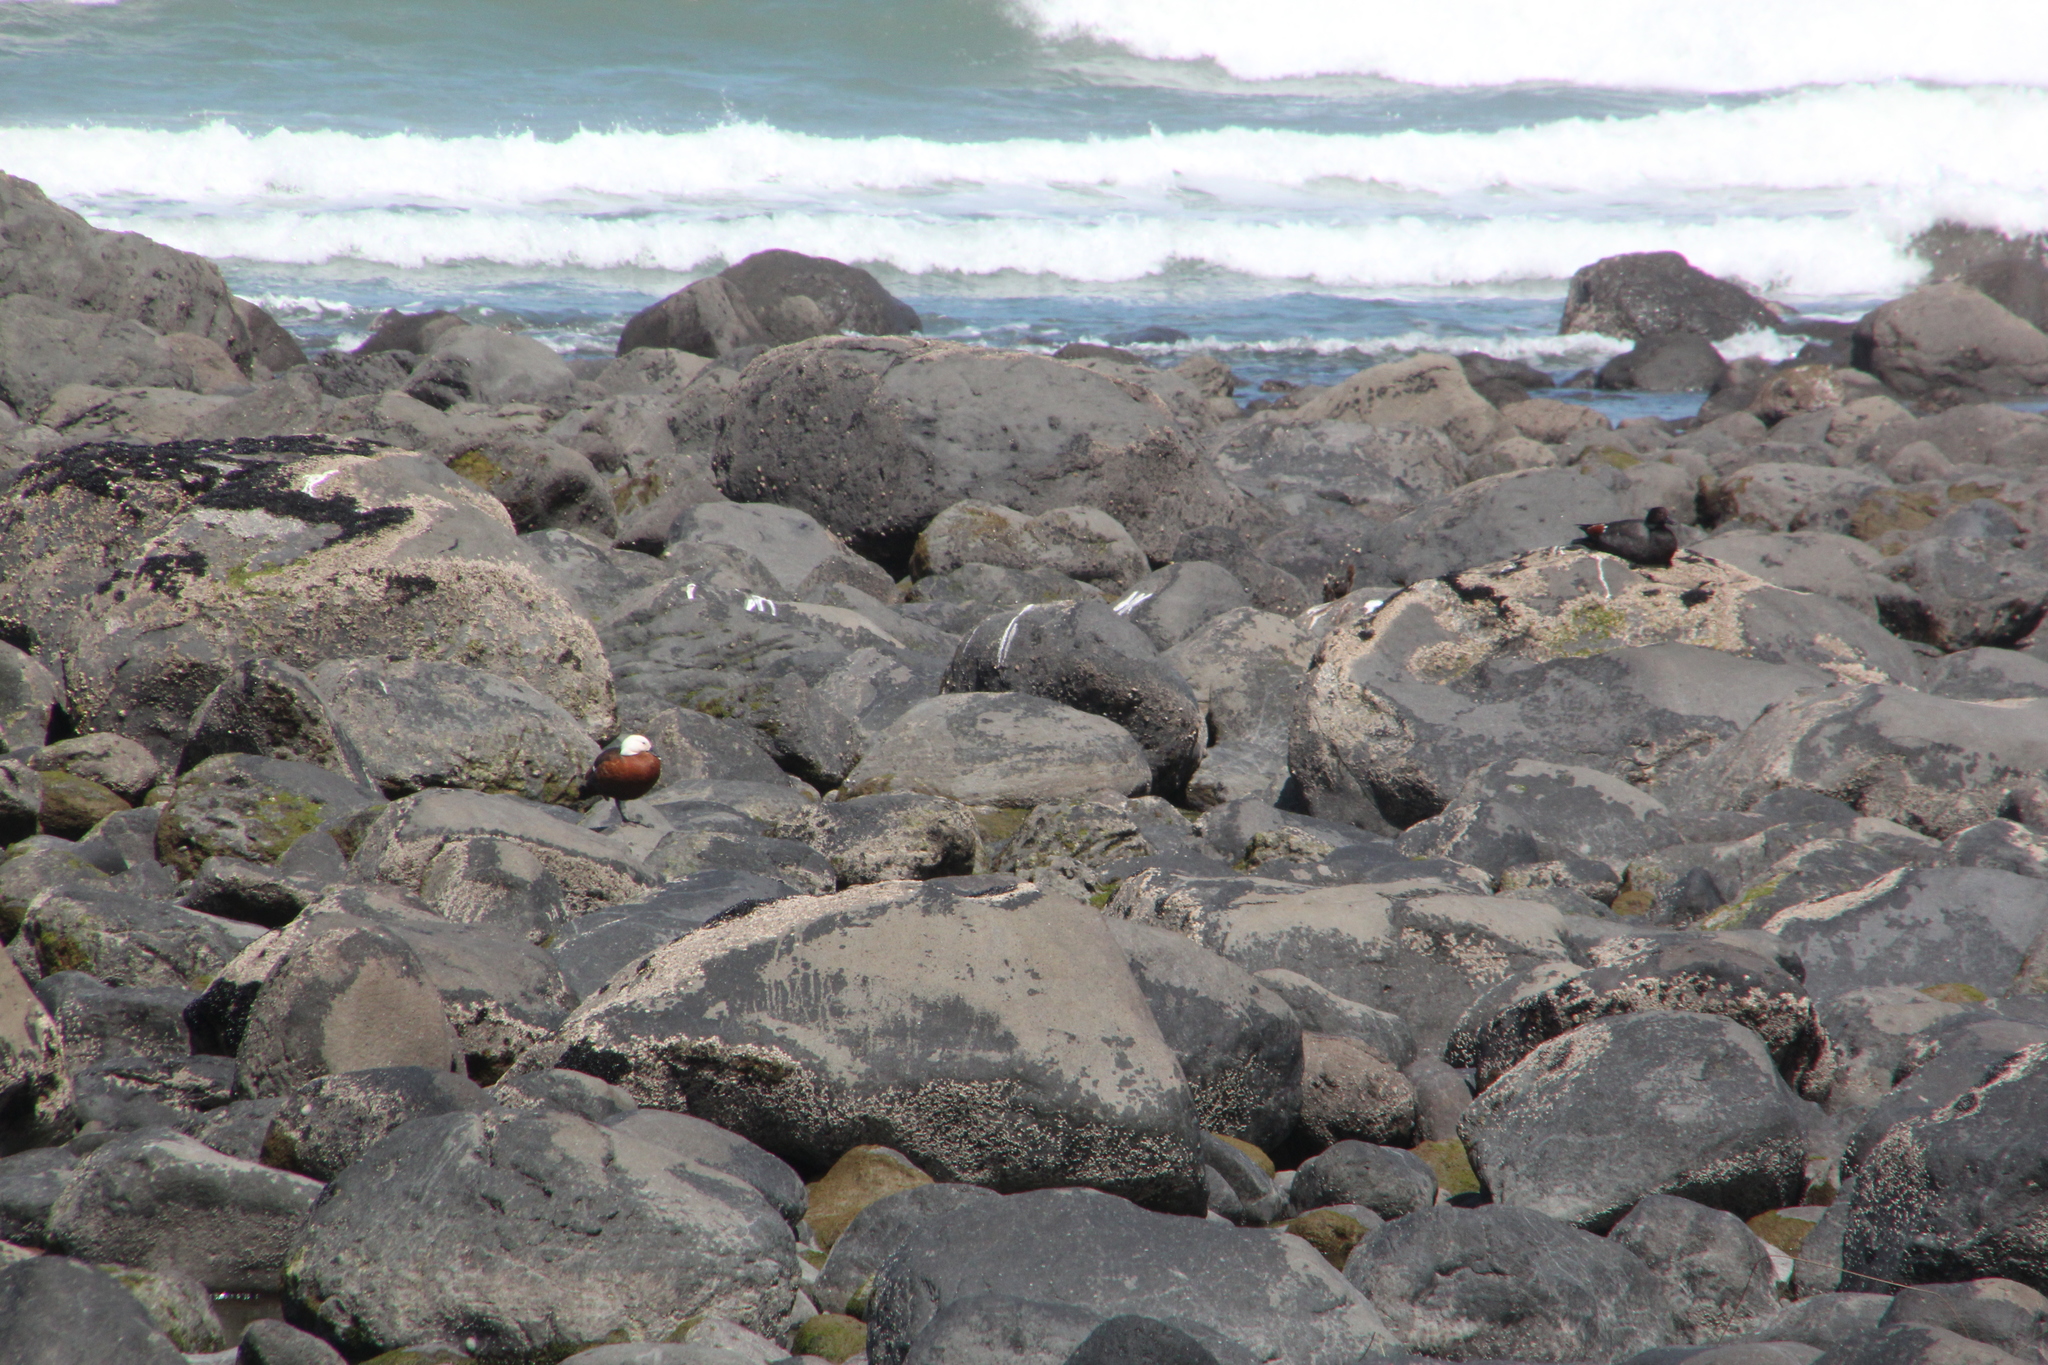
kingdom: Animalia
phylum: Chordata
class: Aves
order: Anseriformes
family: Anatidae
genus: Tadorna
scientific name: Tadorna variegata
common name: Paradise shelduck
